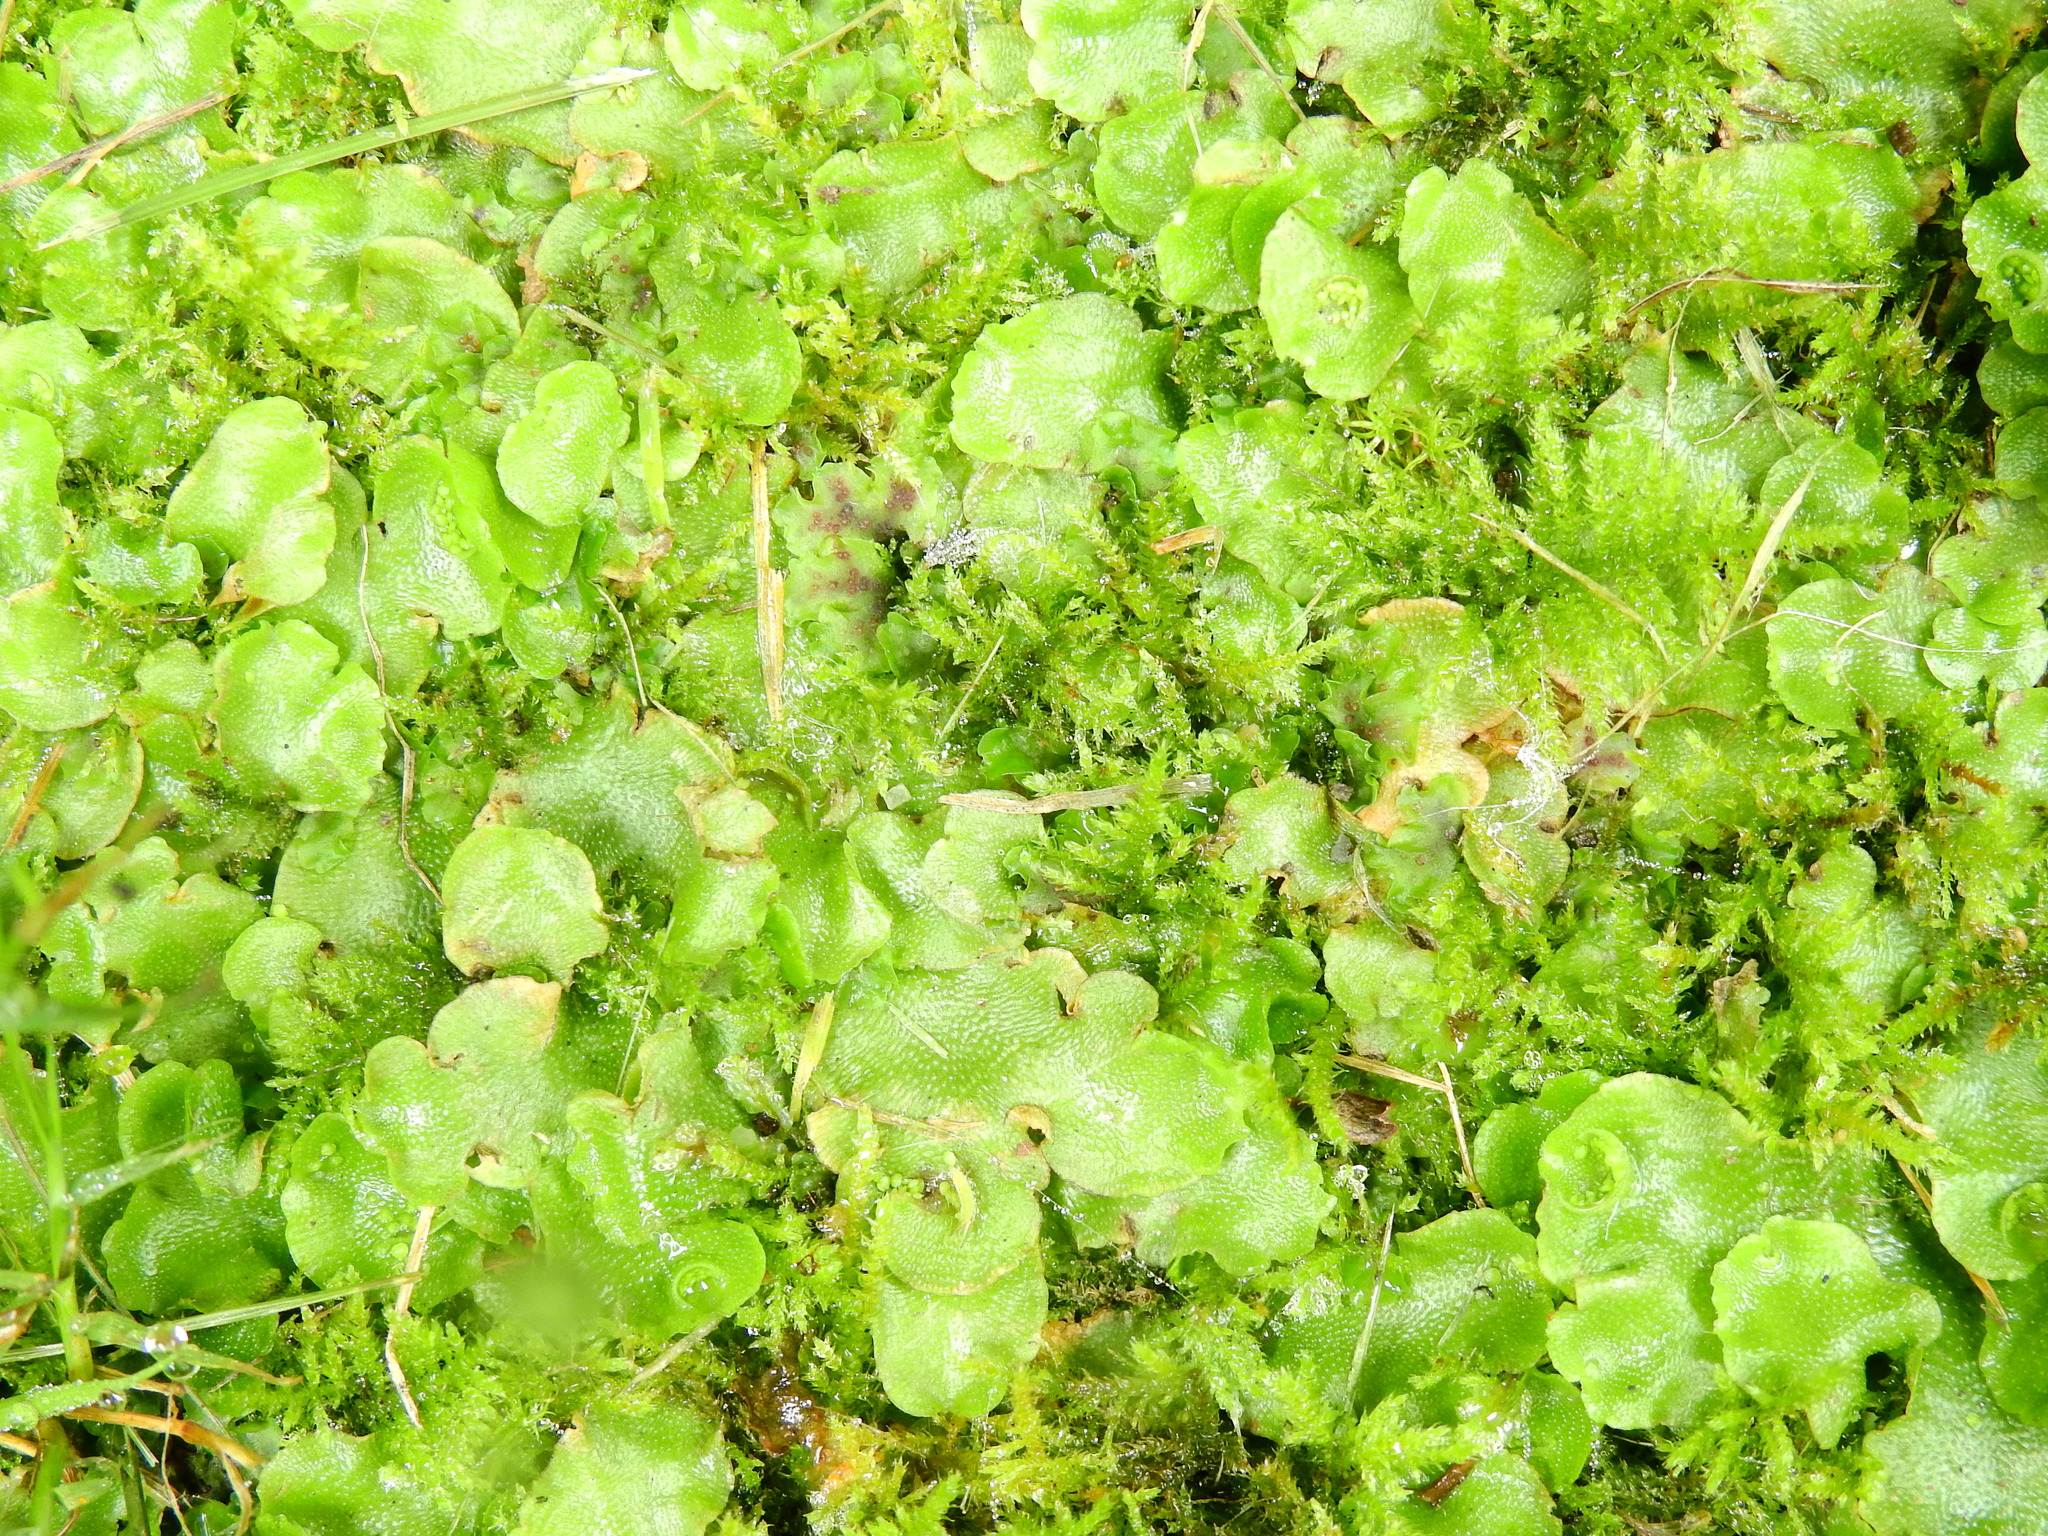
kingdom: Plantae
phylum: Marchantiophyta
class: Marchantiopsida
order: Lunulariales
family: Lunulariaceae
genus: Lunularia
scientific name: Lunularia cruciata
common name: Crescent-cup liverwort
